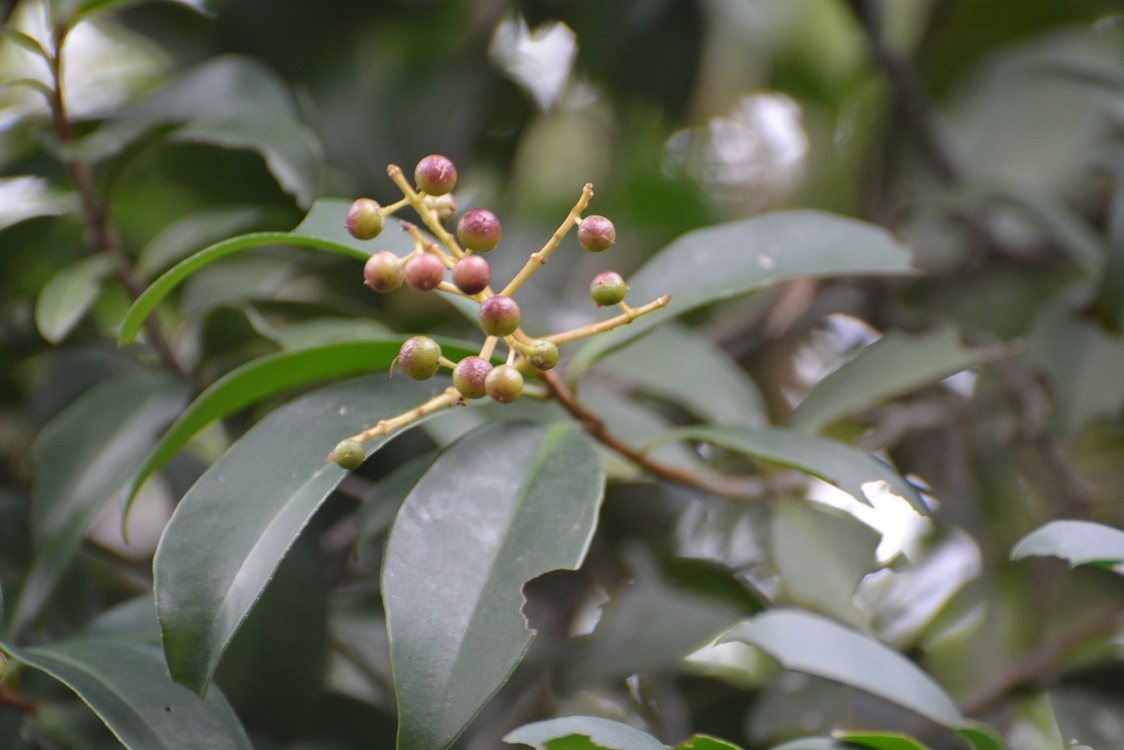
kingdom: Plantae
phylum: Tracheophyta
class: Magnoliopsida
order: Ericales
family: Primulaceae
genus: Ardisia
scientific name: Ardisia escallonioides
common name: Island marlberry
